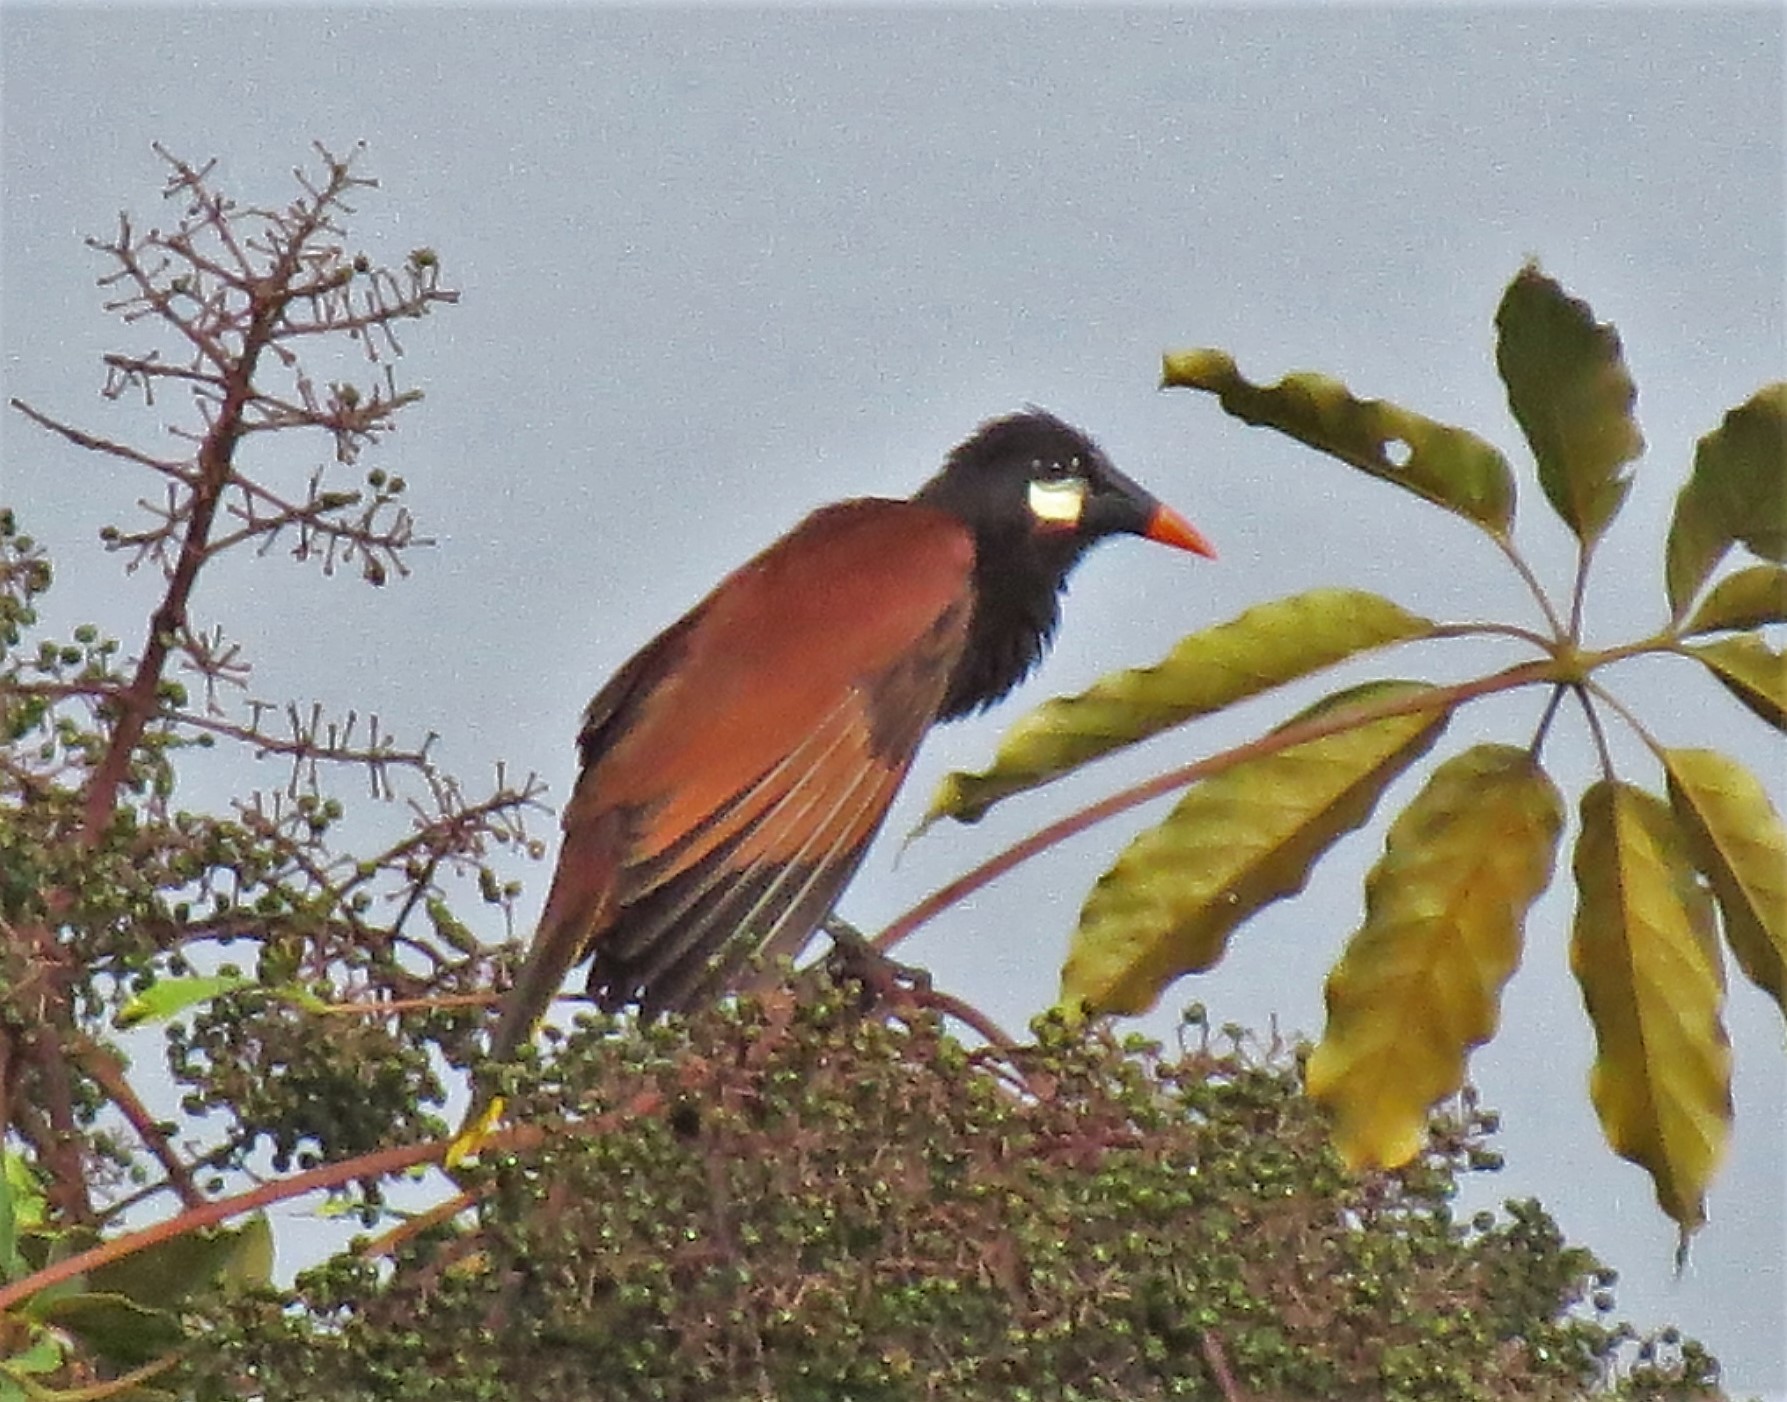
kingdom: Animalia
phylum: Chordata
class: Aves
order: Passeriformes
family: Icteridae
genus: Psarocolius
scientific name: Psarocolius montezuma
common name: Montezuma oropendola
